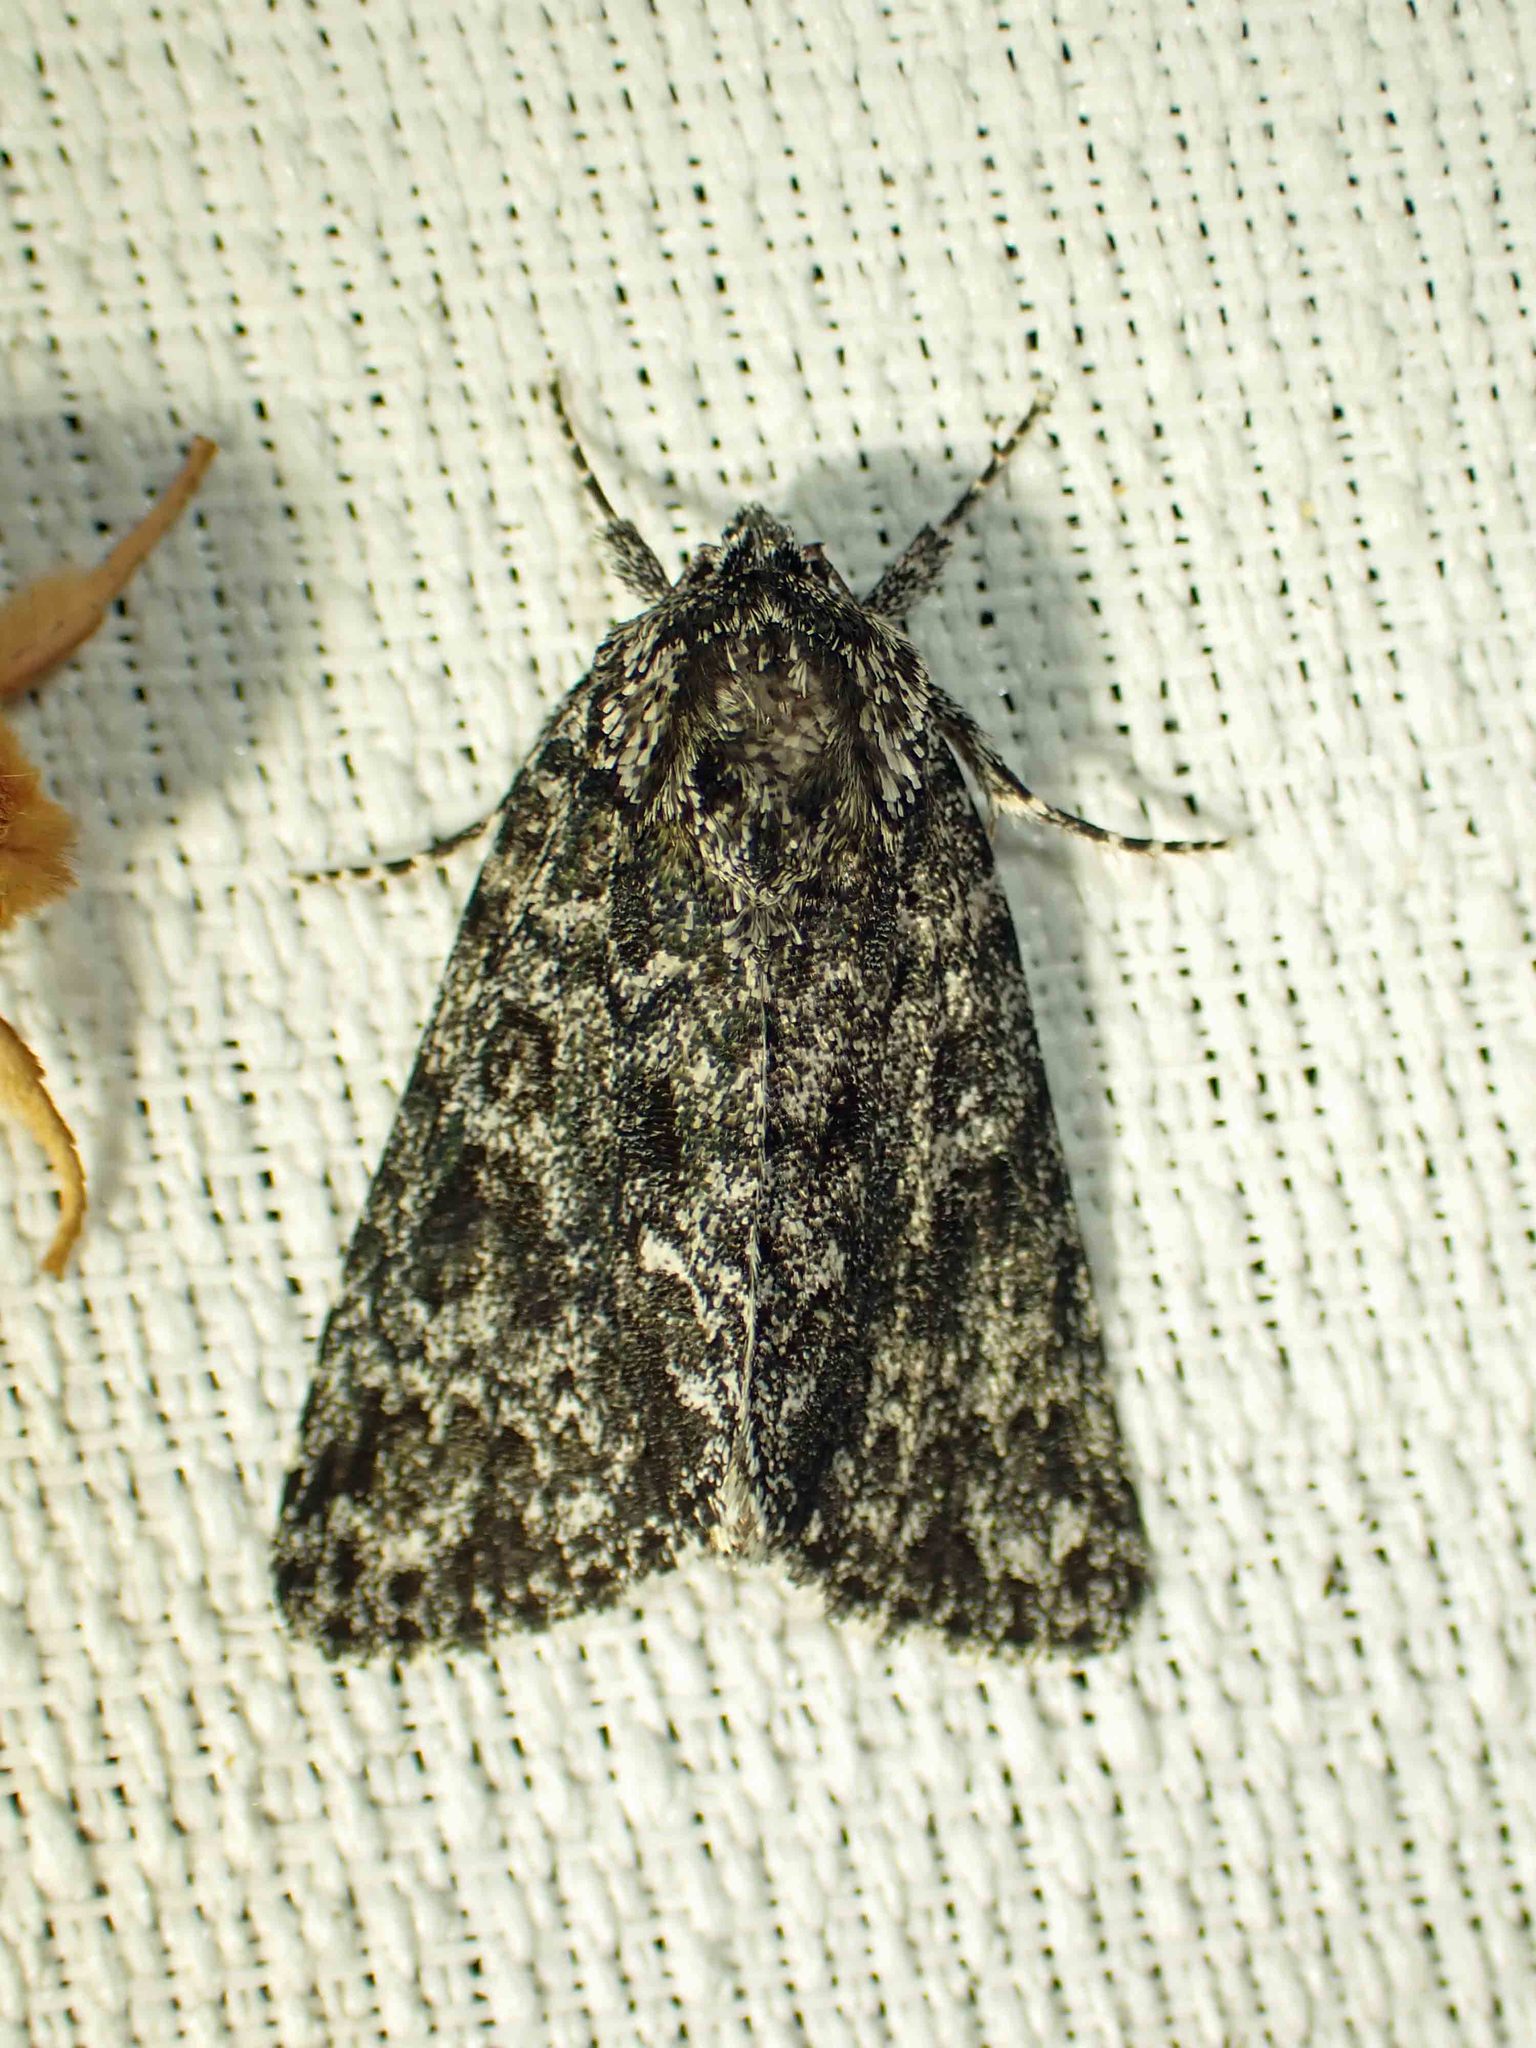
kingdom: Animalia
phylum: Arthropoda
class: Insecta
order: Lepidoptera
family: Noctuidae
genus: Acronicta
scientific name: Acronicta noctivaga
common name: Night-wandering dagger
